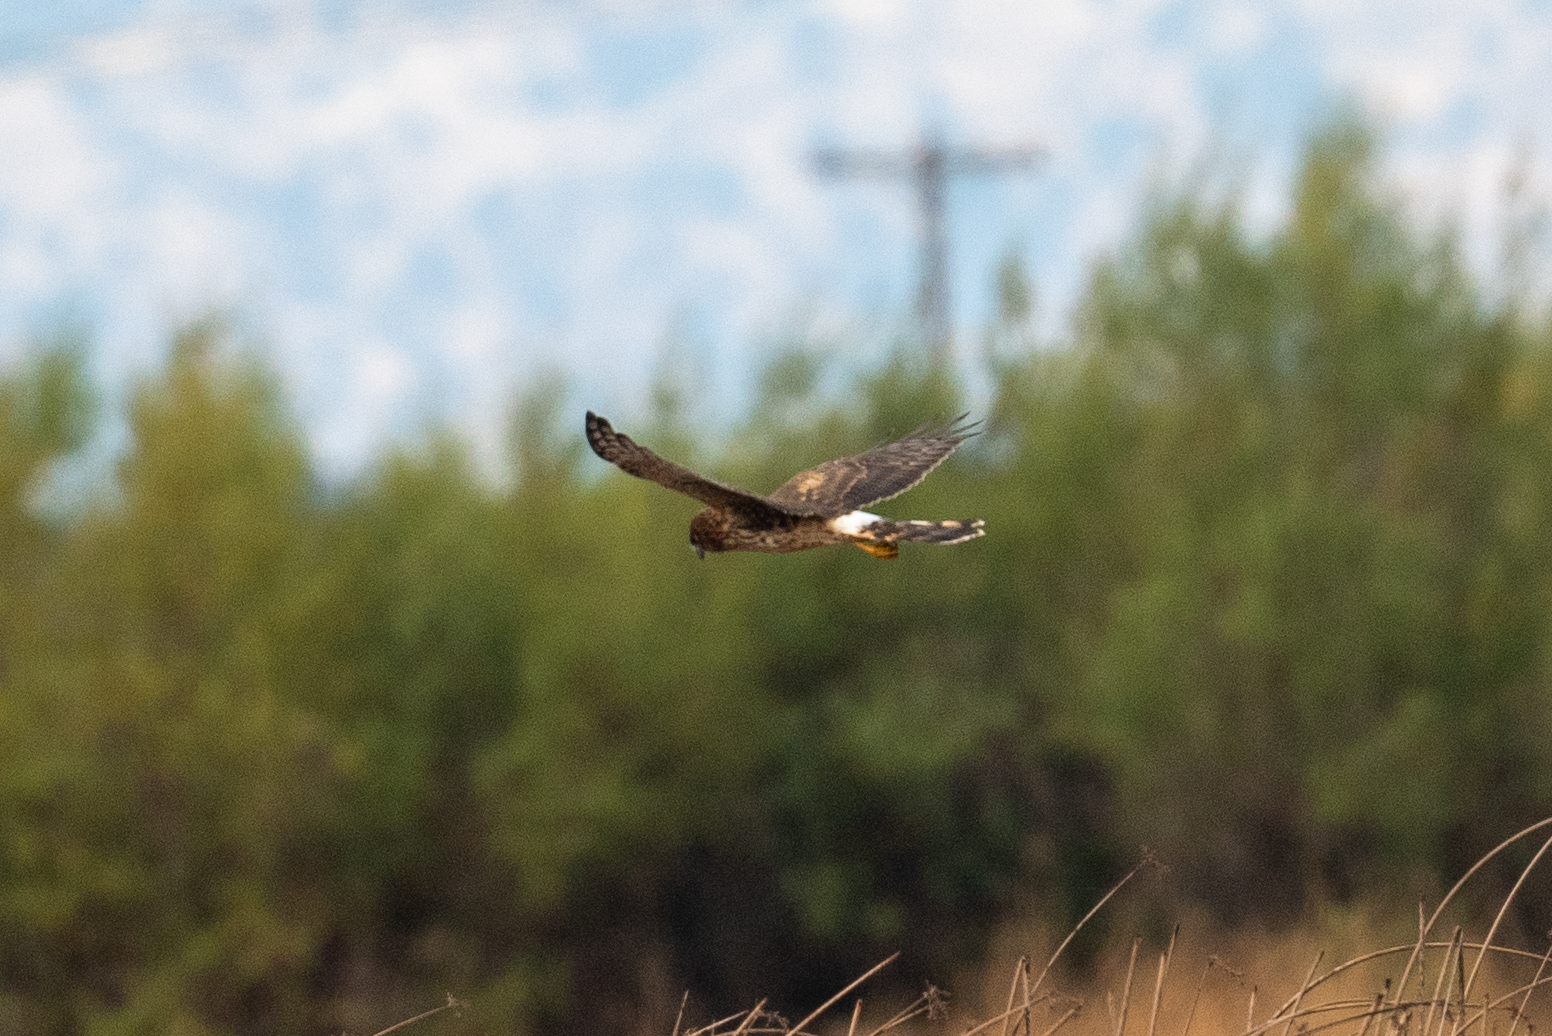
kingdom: Animalia
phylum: Chordata
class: Aves
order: Accipitriformes
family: Accipitridae
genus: Circus
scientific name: Circus cyaneus
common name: Hen harrier
